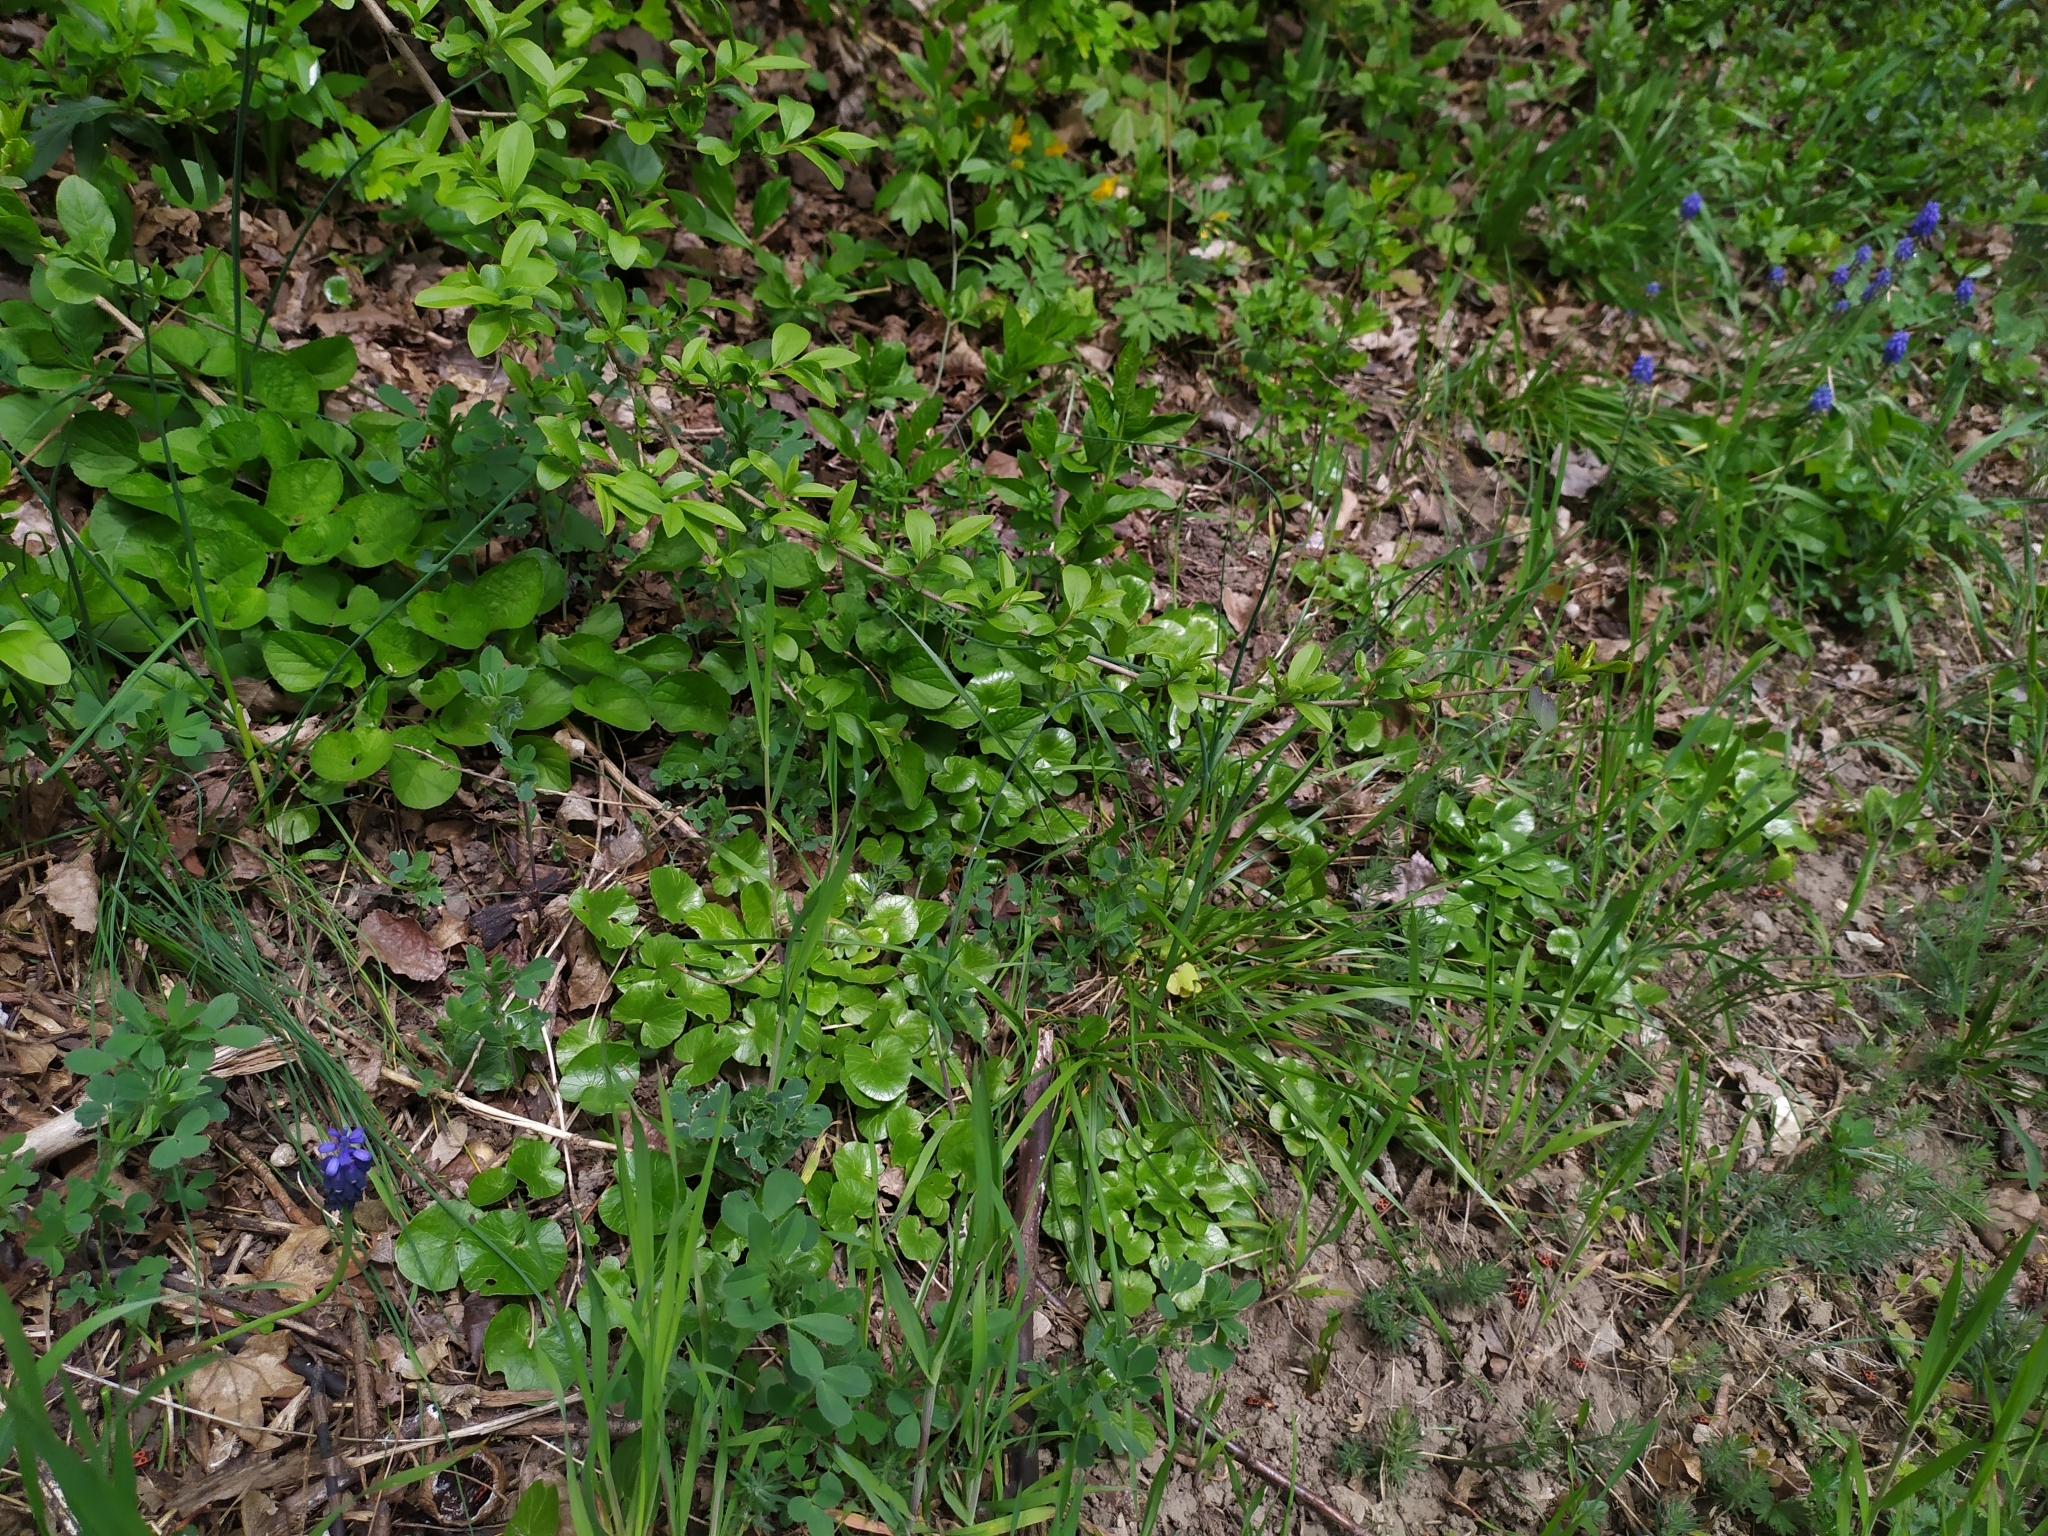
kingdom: Plantae
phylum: Tracheophyta
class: Liliopsida
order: Asparagales
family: Asparagaceae
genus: Muscari
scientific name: Muscari neglectum
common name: Grape-hyacinth
